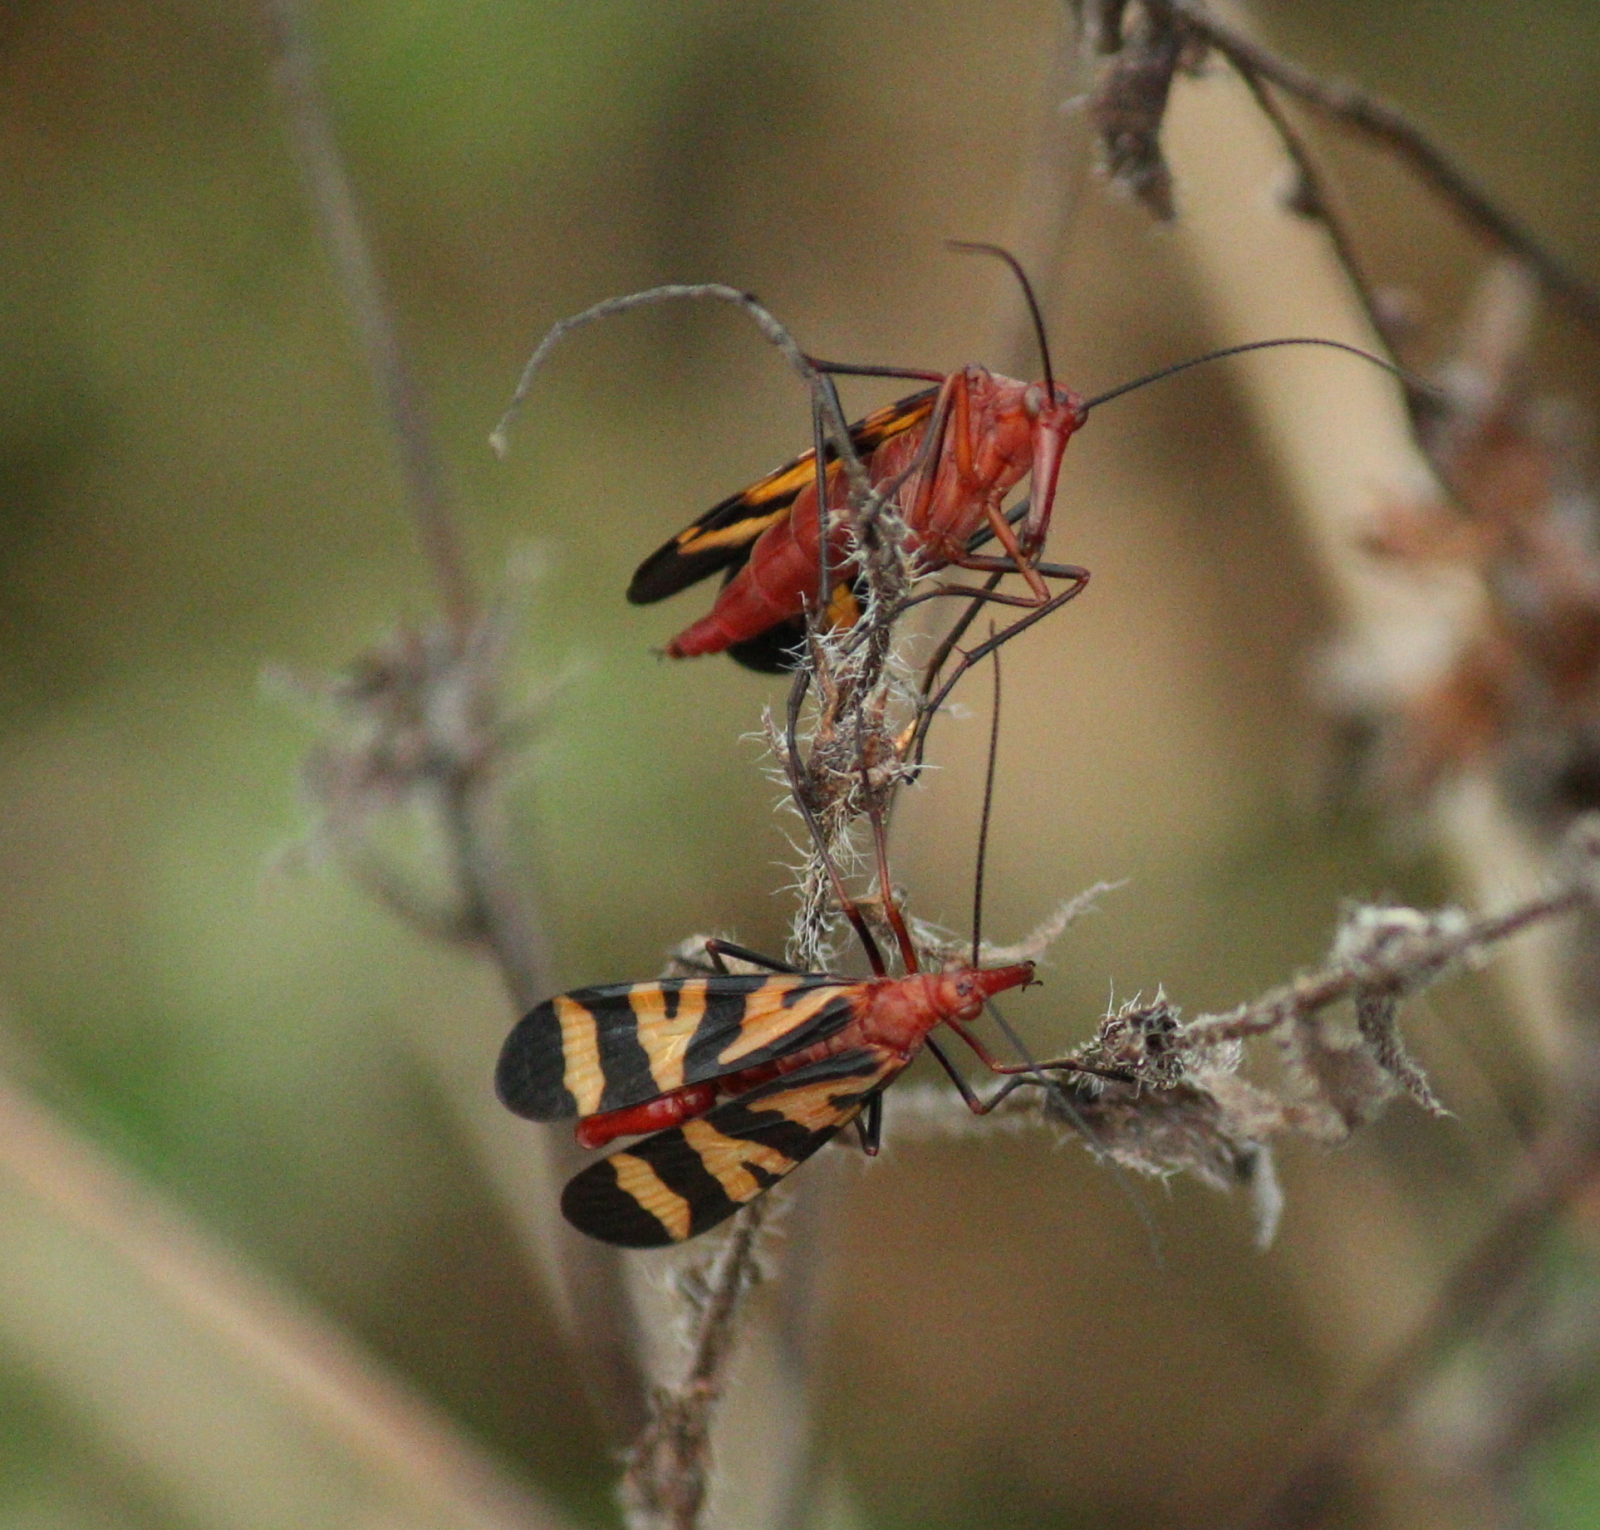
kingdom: Animalia
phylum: Arthropoda
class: Insecta
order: Mecoptera
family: Panorpidae
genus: Panorpa
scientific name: Panorpa nuptialis
